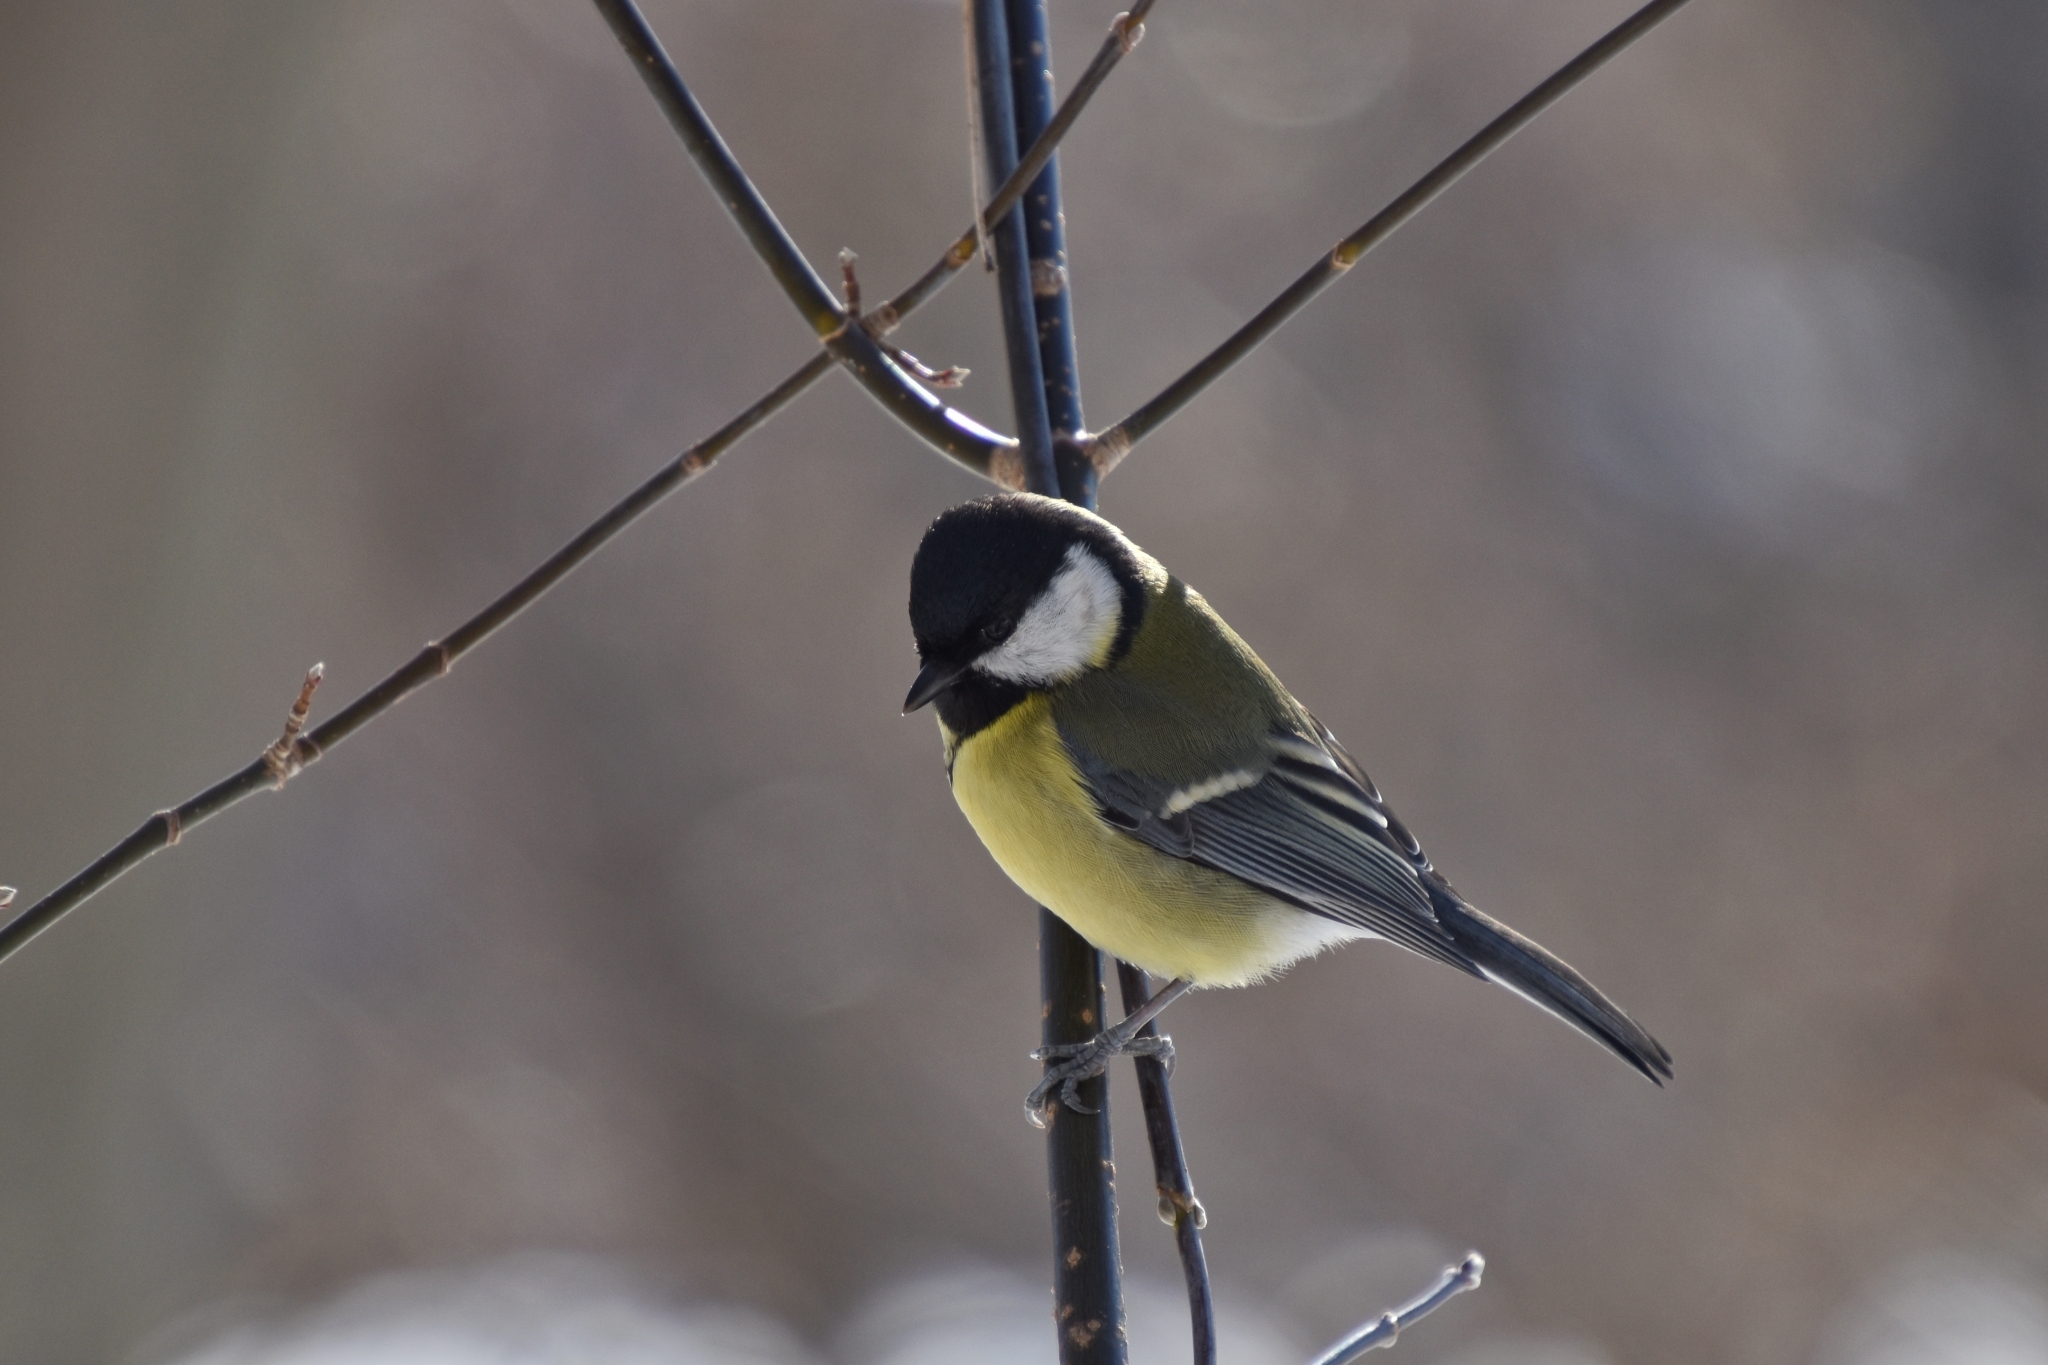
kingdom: Animalia
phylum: Chordata
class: Aves
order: Passeriformes
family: Paridae
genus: Parus
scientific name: Parus major
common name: Great tit
